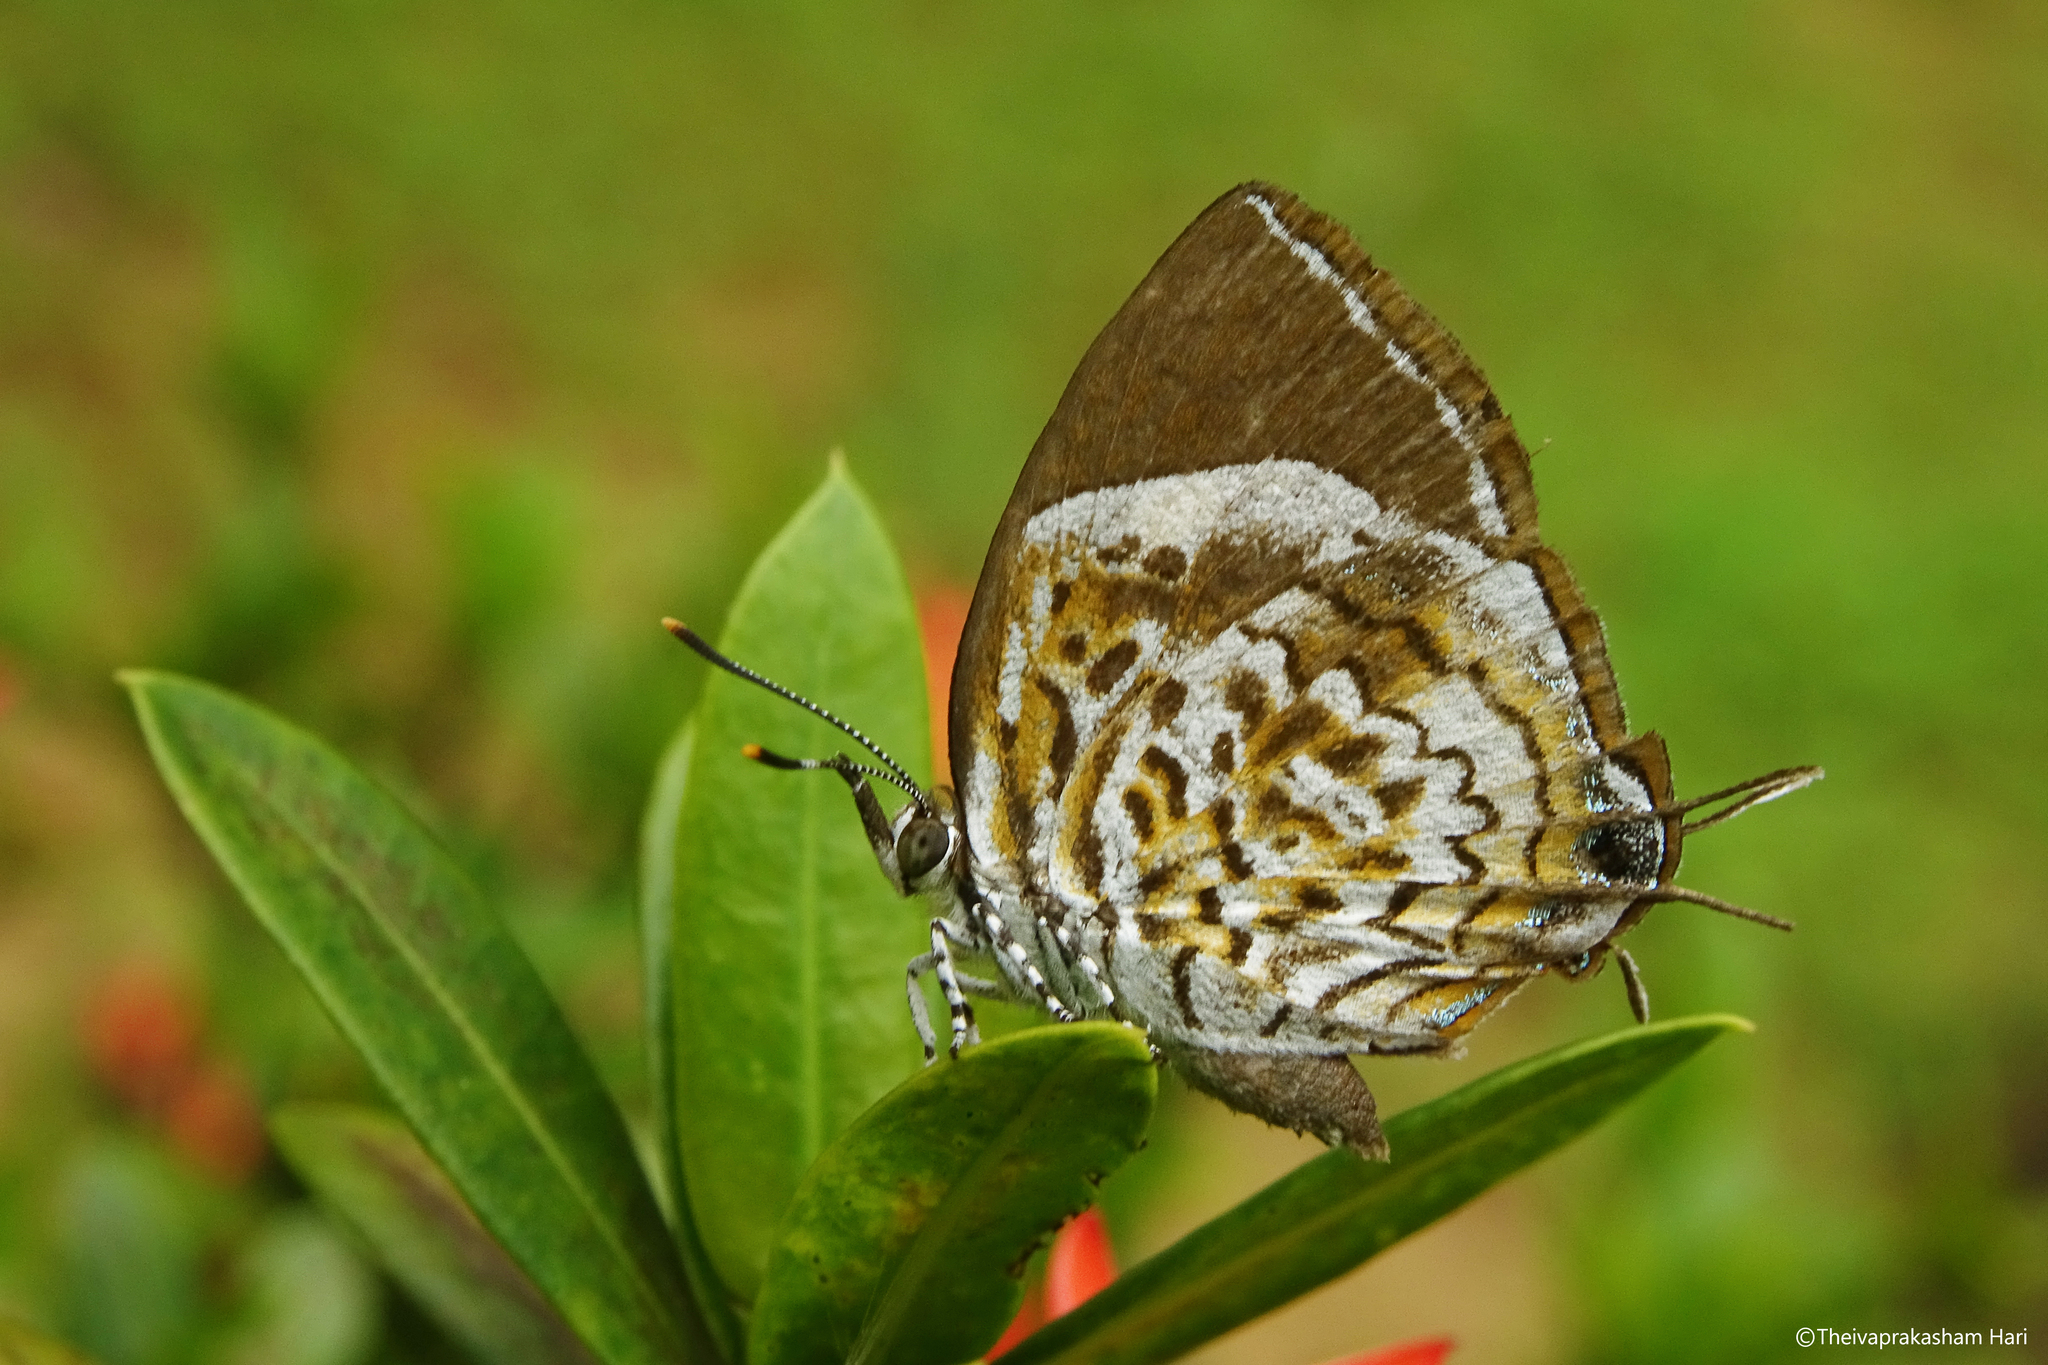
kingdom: Animalia
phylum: Arthropoda
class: Insecta
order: Lepidoptera
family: Lycaenidae
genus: Rathinda
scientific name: Rathinda amor
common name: Monkey puzzle
